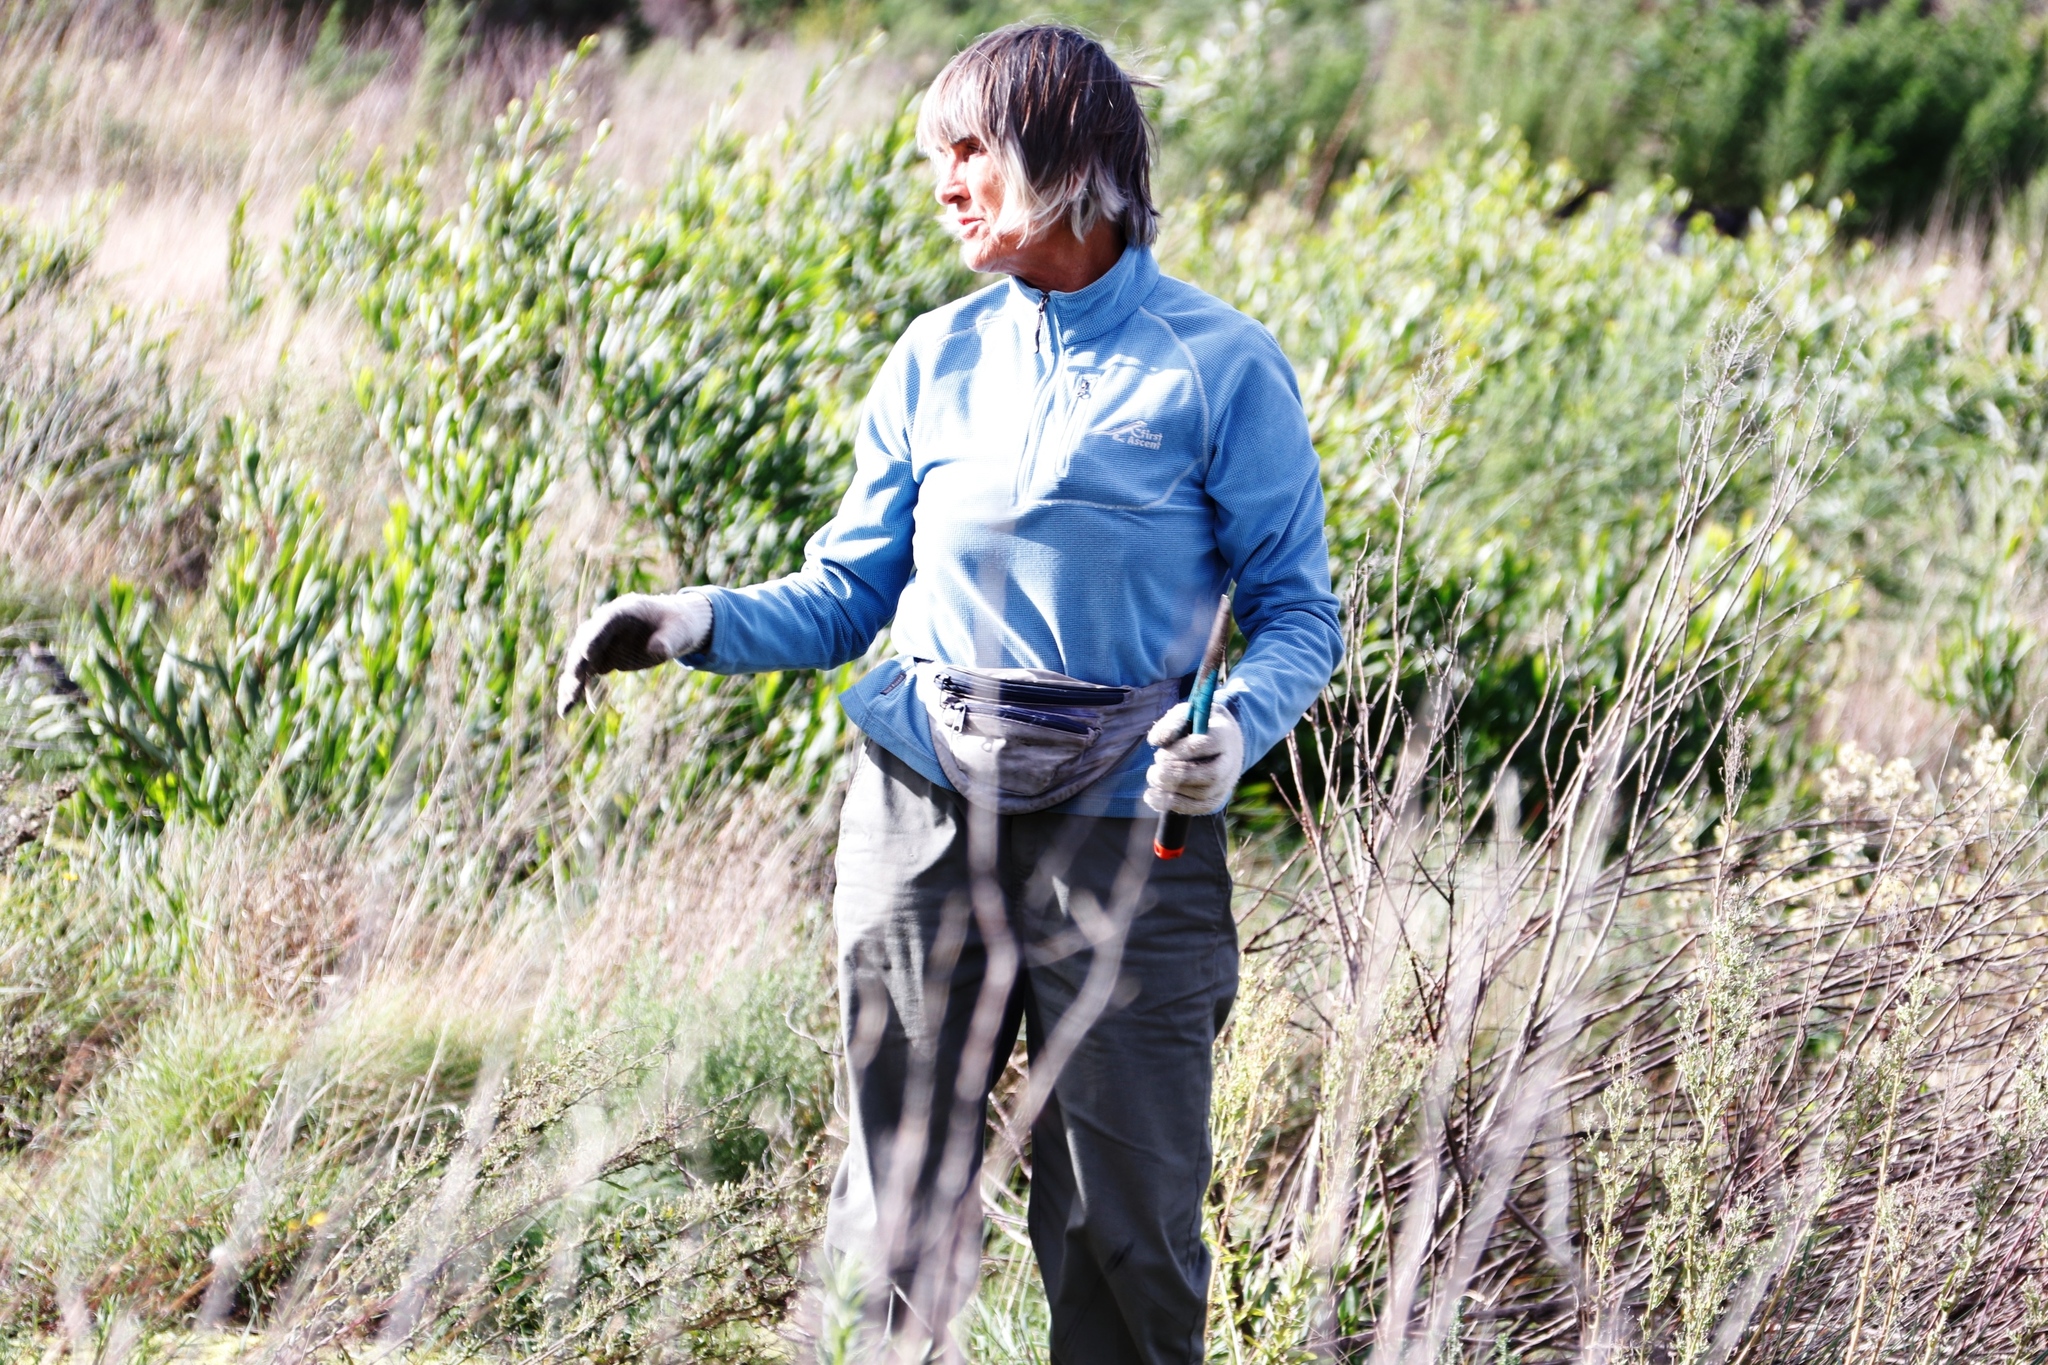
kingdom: Plantae
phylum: Tracheophyta
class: Magnoliopsida
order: Fabales
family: Fabaceae
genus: Acacia
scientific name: Acacia longifolia
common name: Sydney golden wattle
